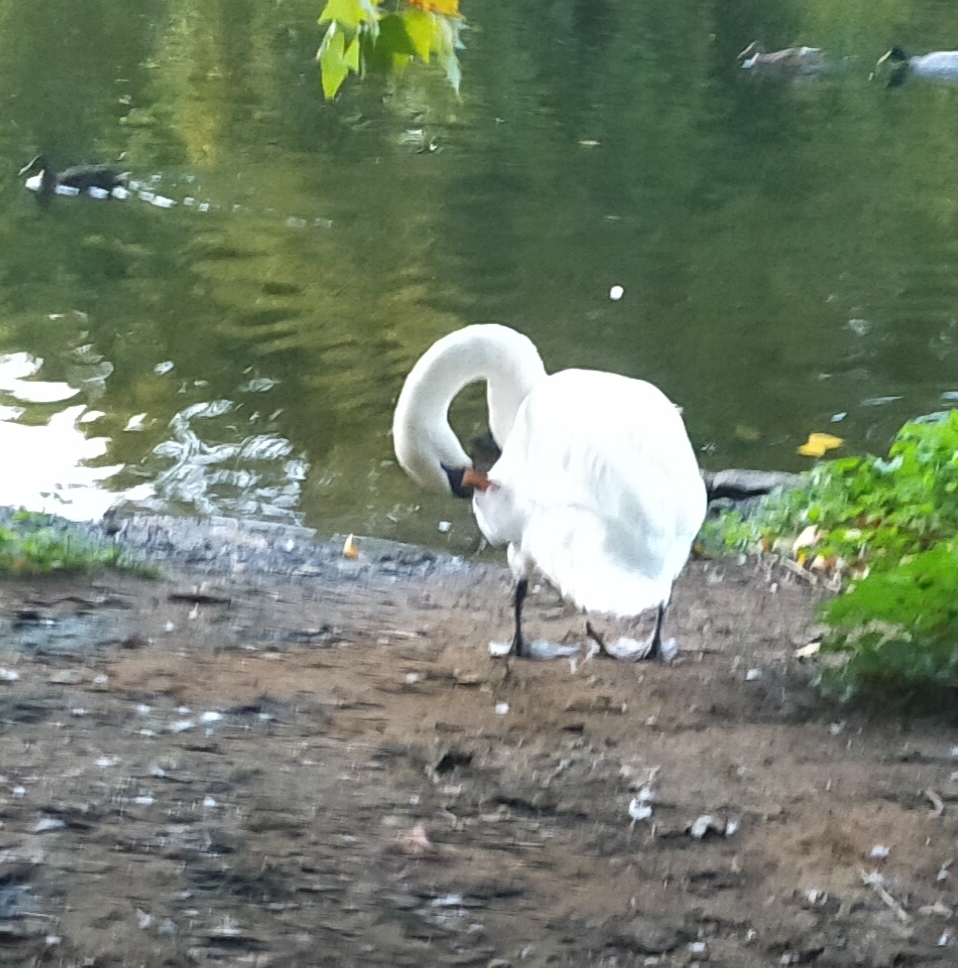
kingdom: Animalia
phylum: Chordata
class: Aves
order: Anseriformes
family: Anatidae
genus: Cygnus
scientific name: Cygnus olor
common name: Mute swan
